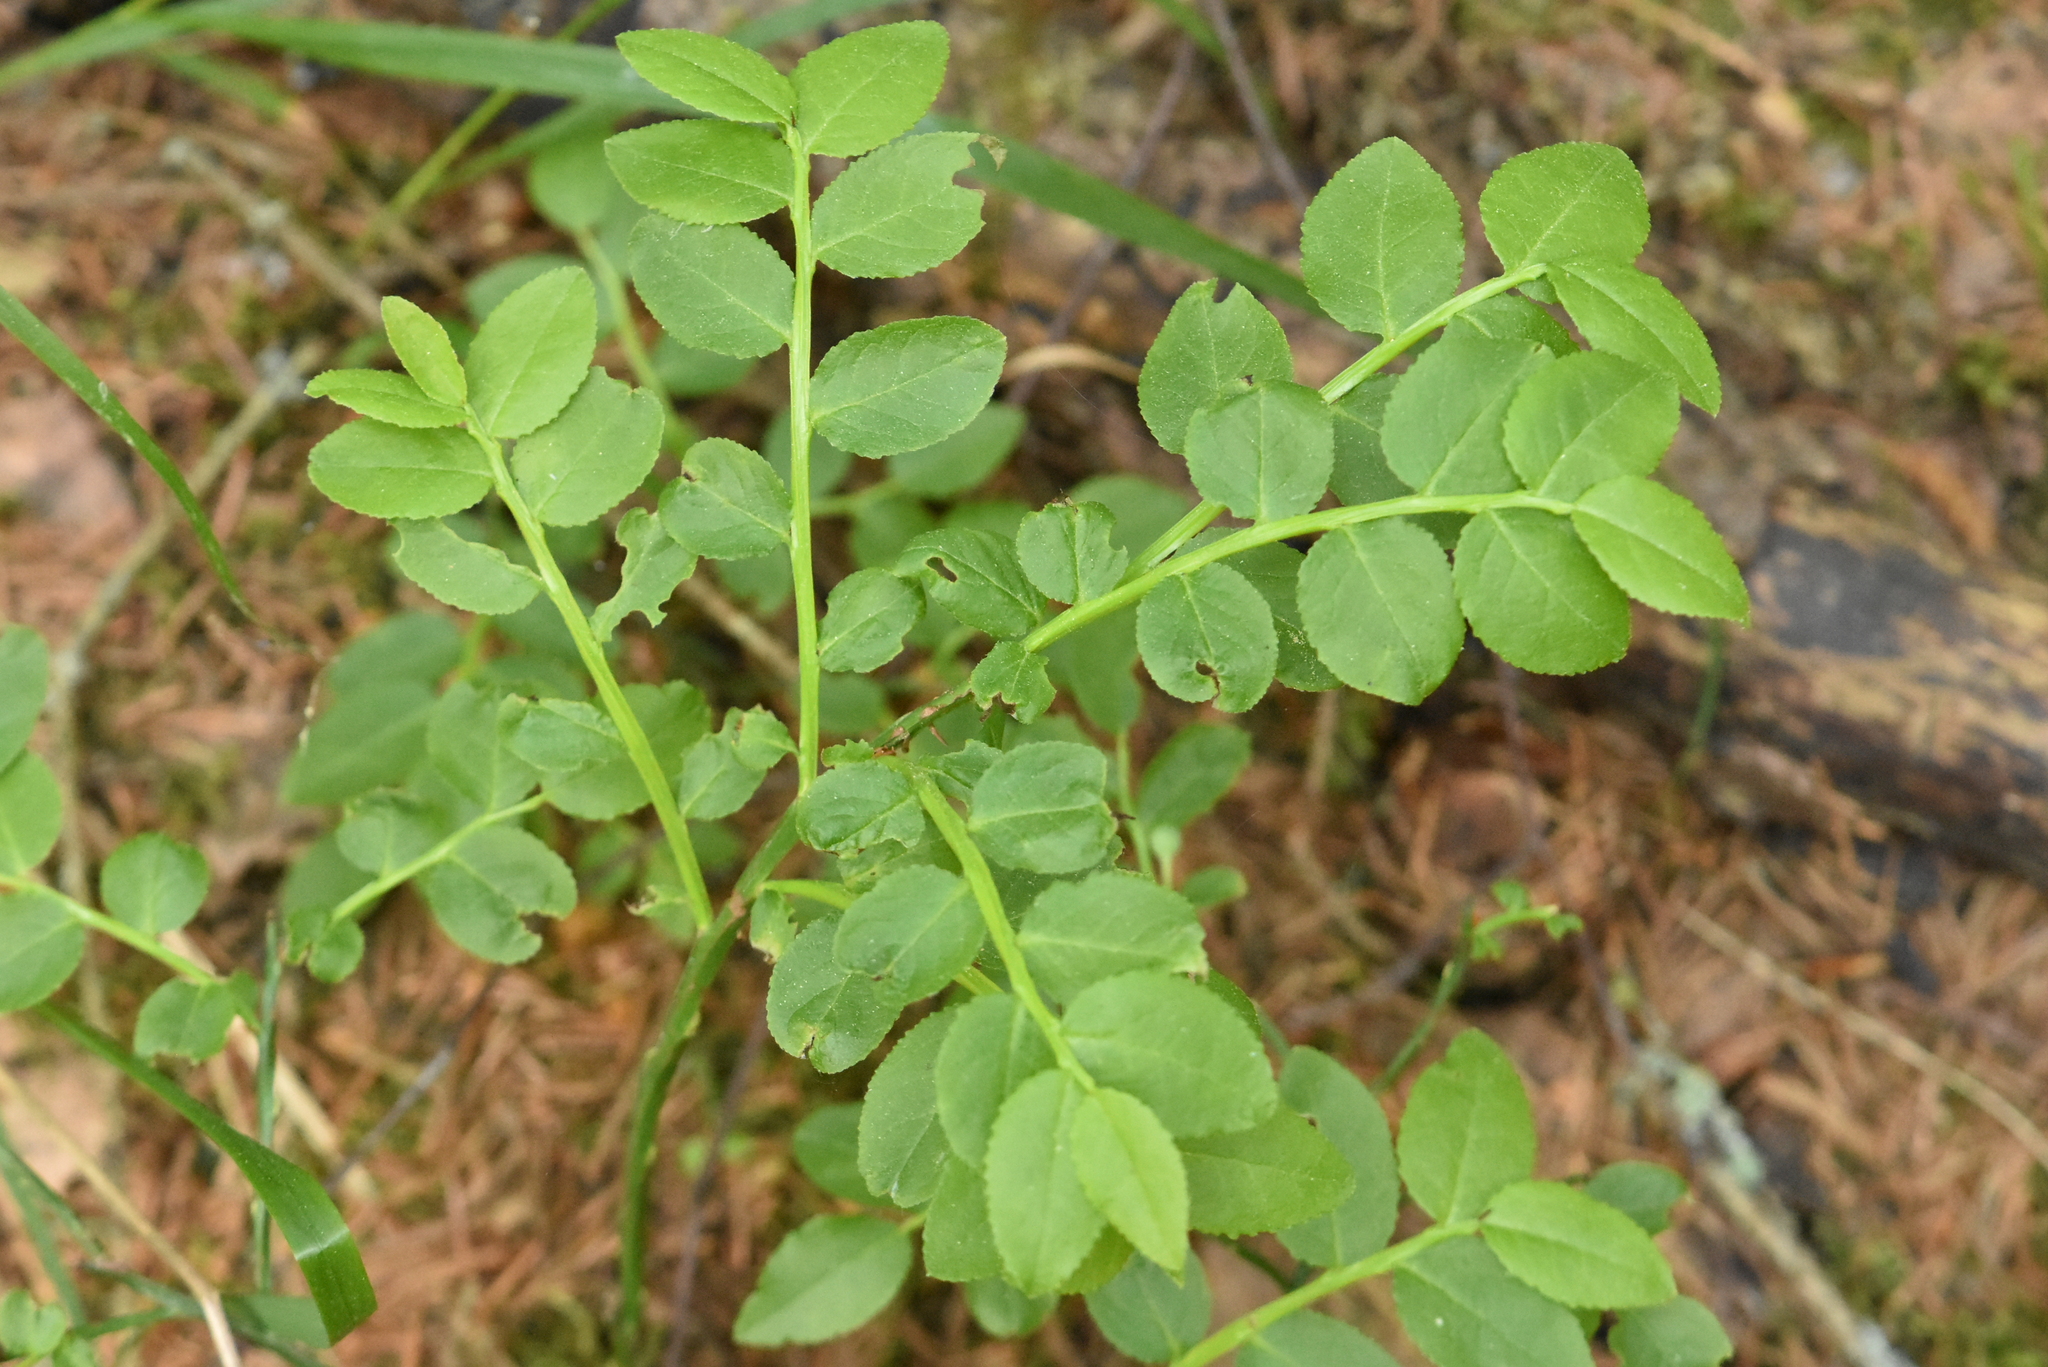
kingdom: Plantae
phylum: Tracheophyta
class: Magnoliopsida
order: Ericales
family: Ericaceae
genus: Vaccinium
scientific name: Vaccinium myrtillus
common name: Bilberry
